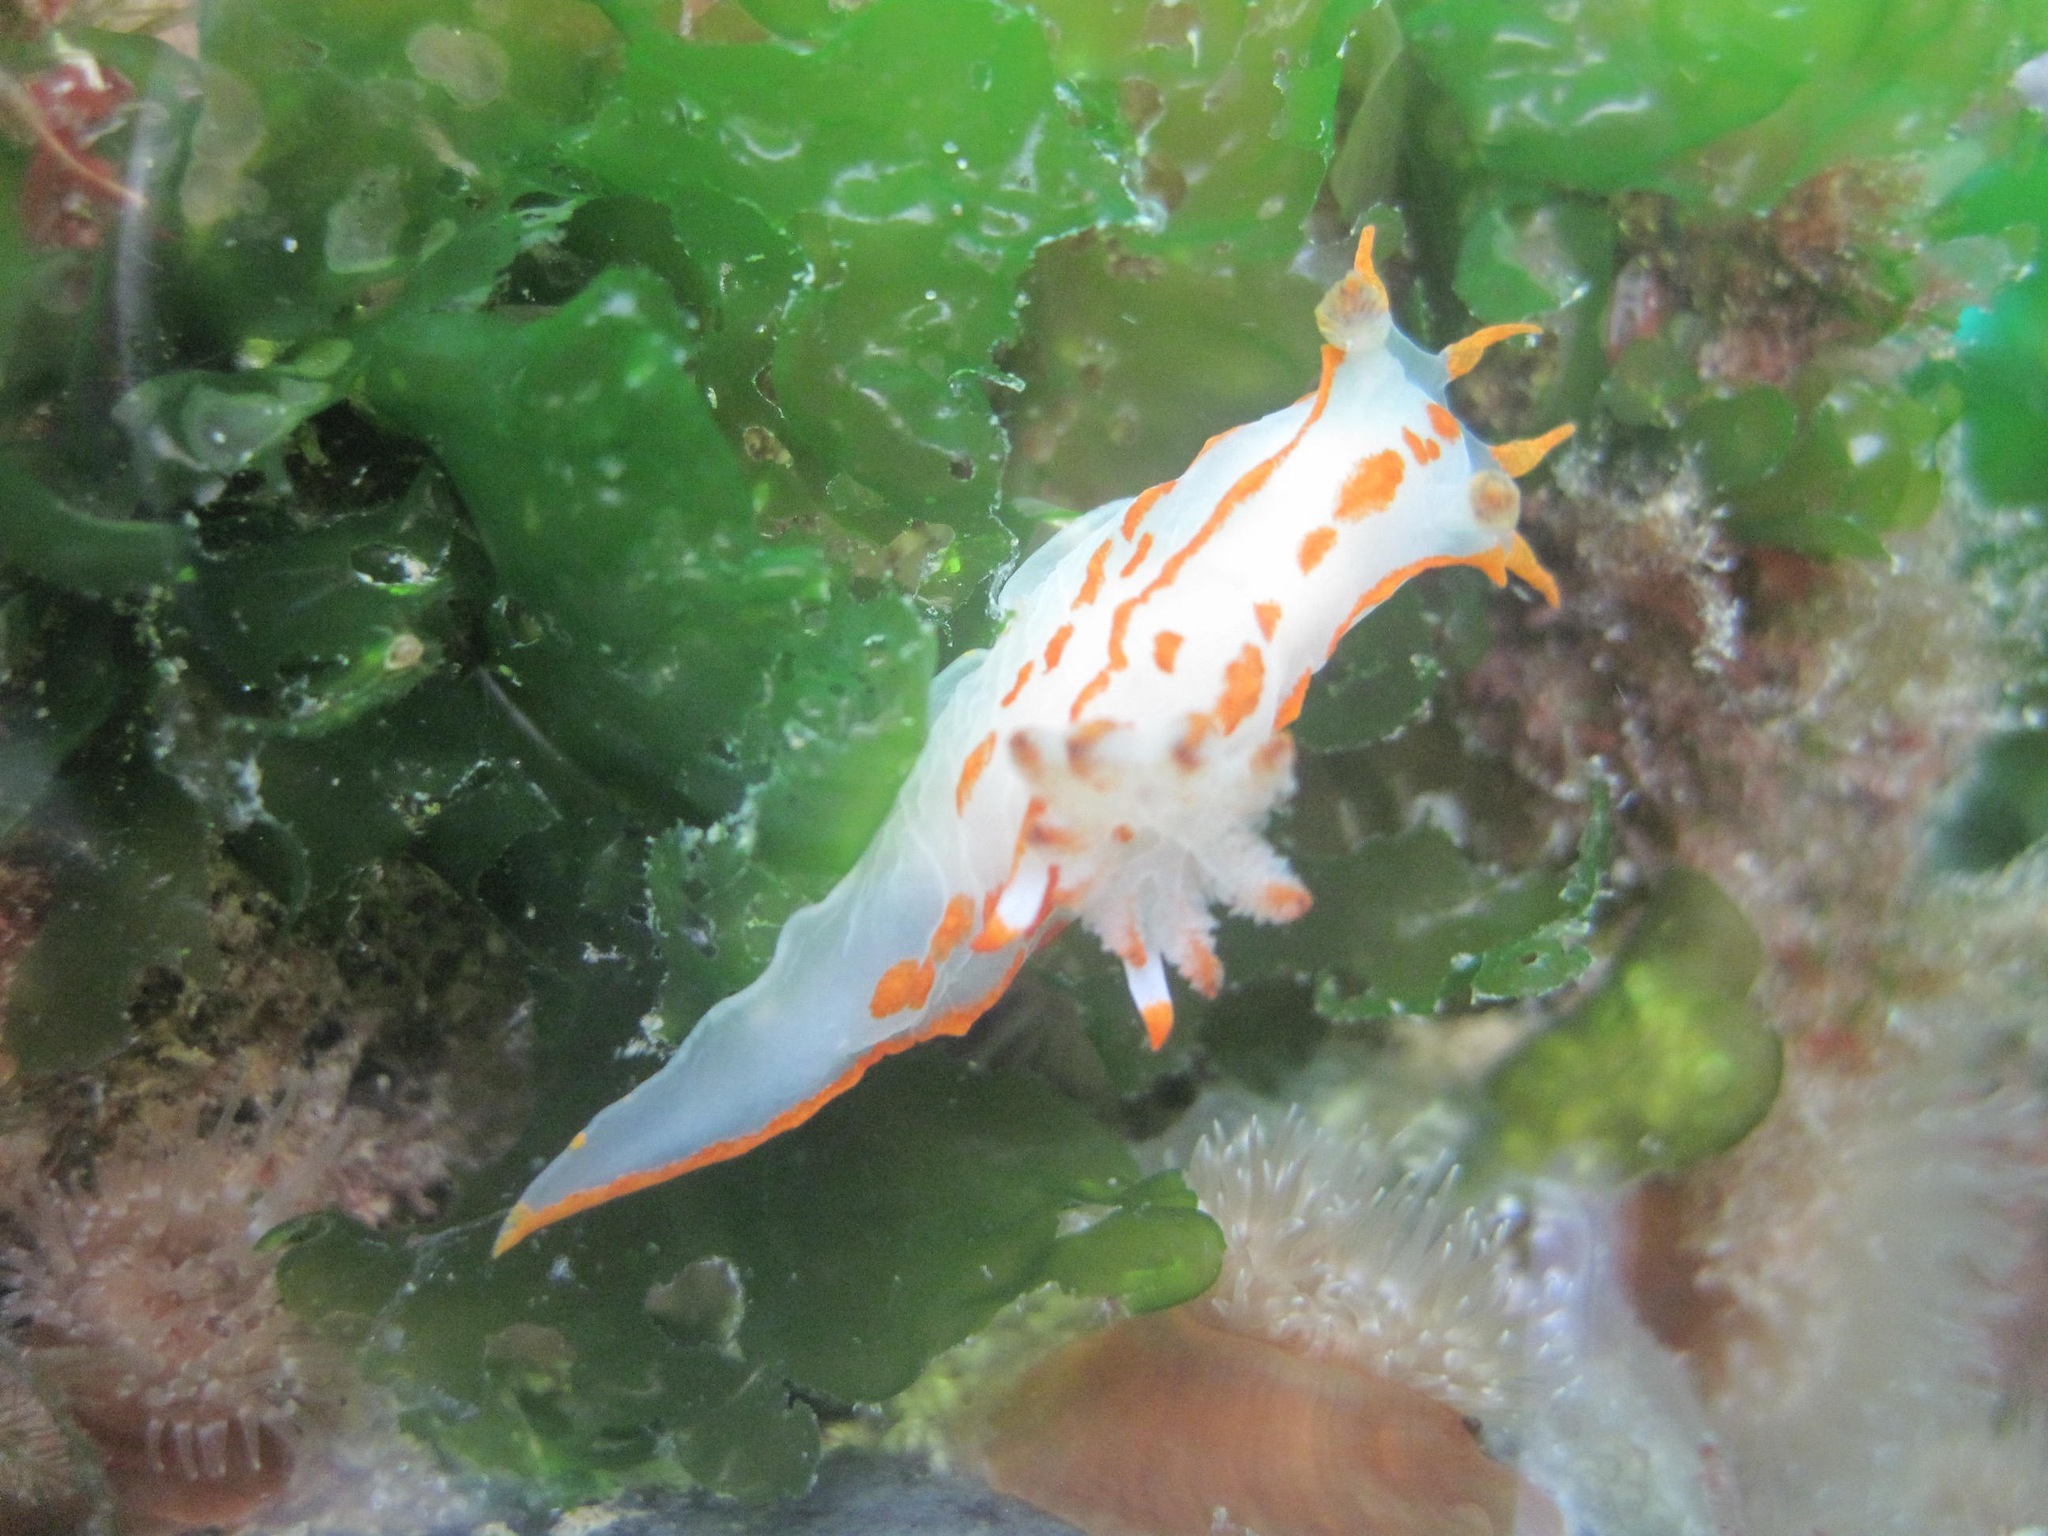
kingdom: Animalia
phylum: Mollusca
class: Gastropoda
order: Nudibranchia
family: Polyceridae
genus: Polycera
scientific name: Polycera quadrilineata
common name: Four-striped polycera
